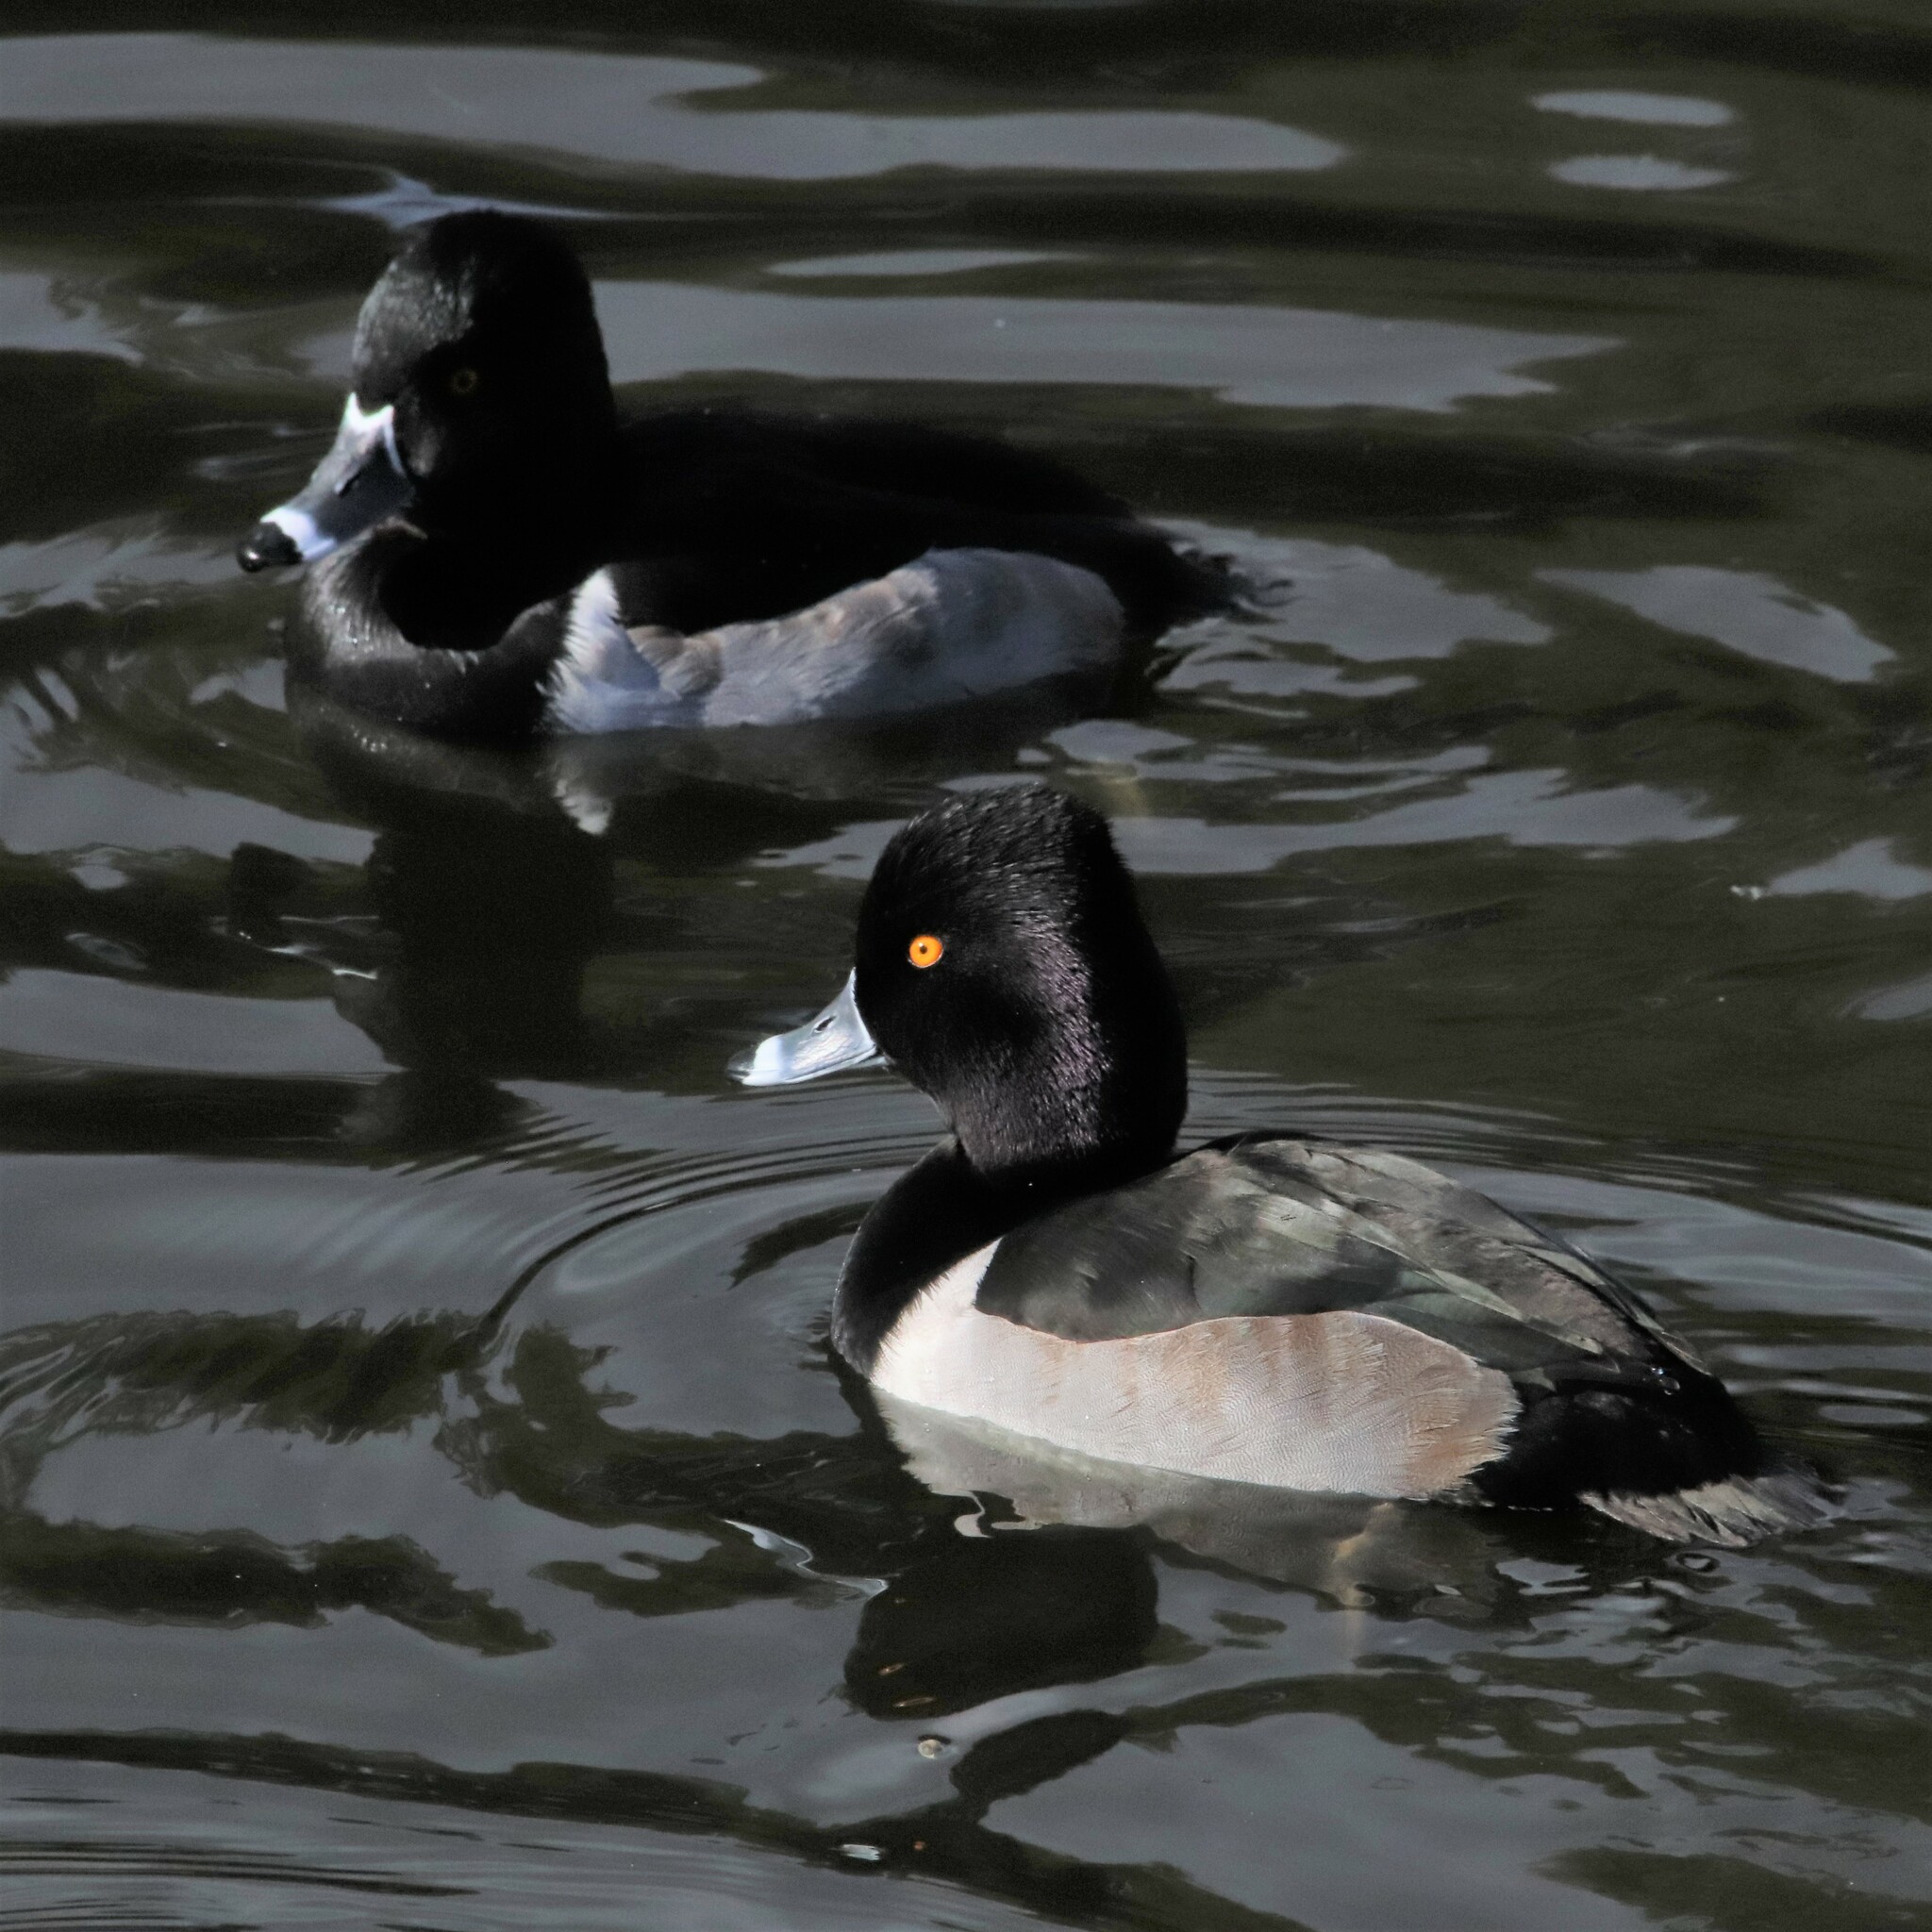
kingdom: Animalia
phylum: Chordata
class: Aves
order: Anseriformes
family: Anatidae
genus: Aythya
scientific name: Aythya collaris
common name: Ring-necked duck
